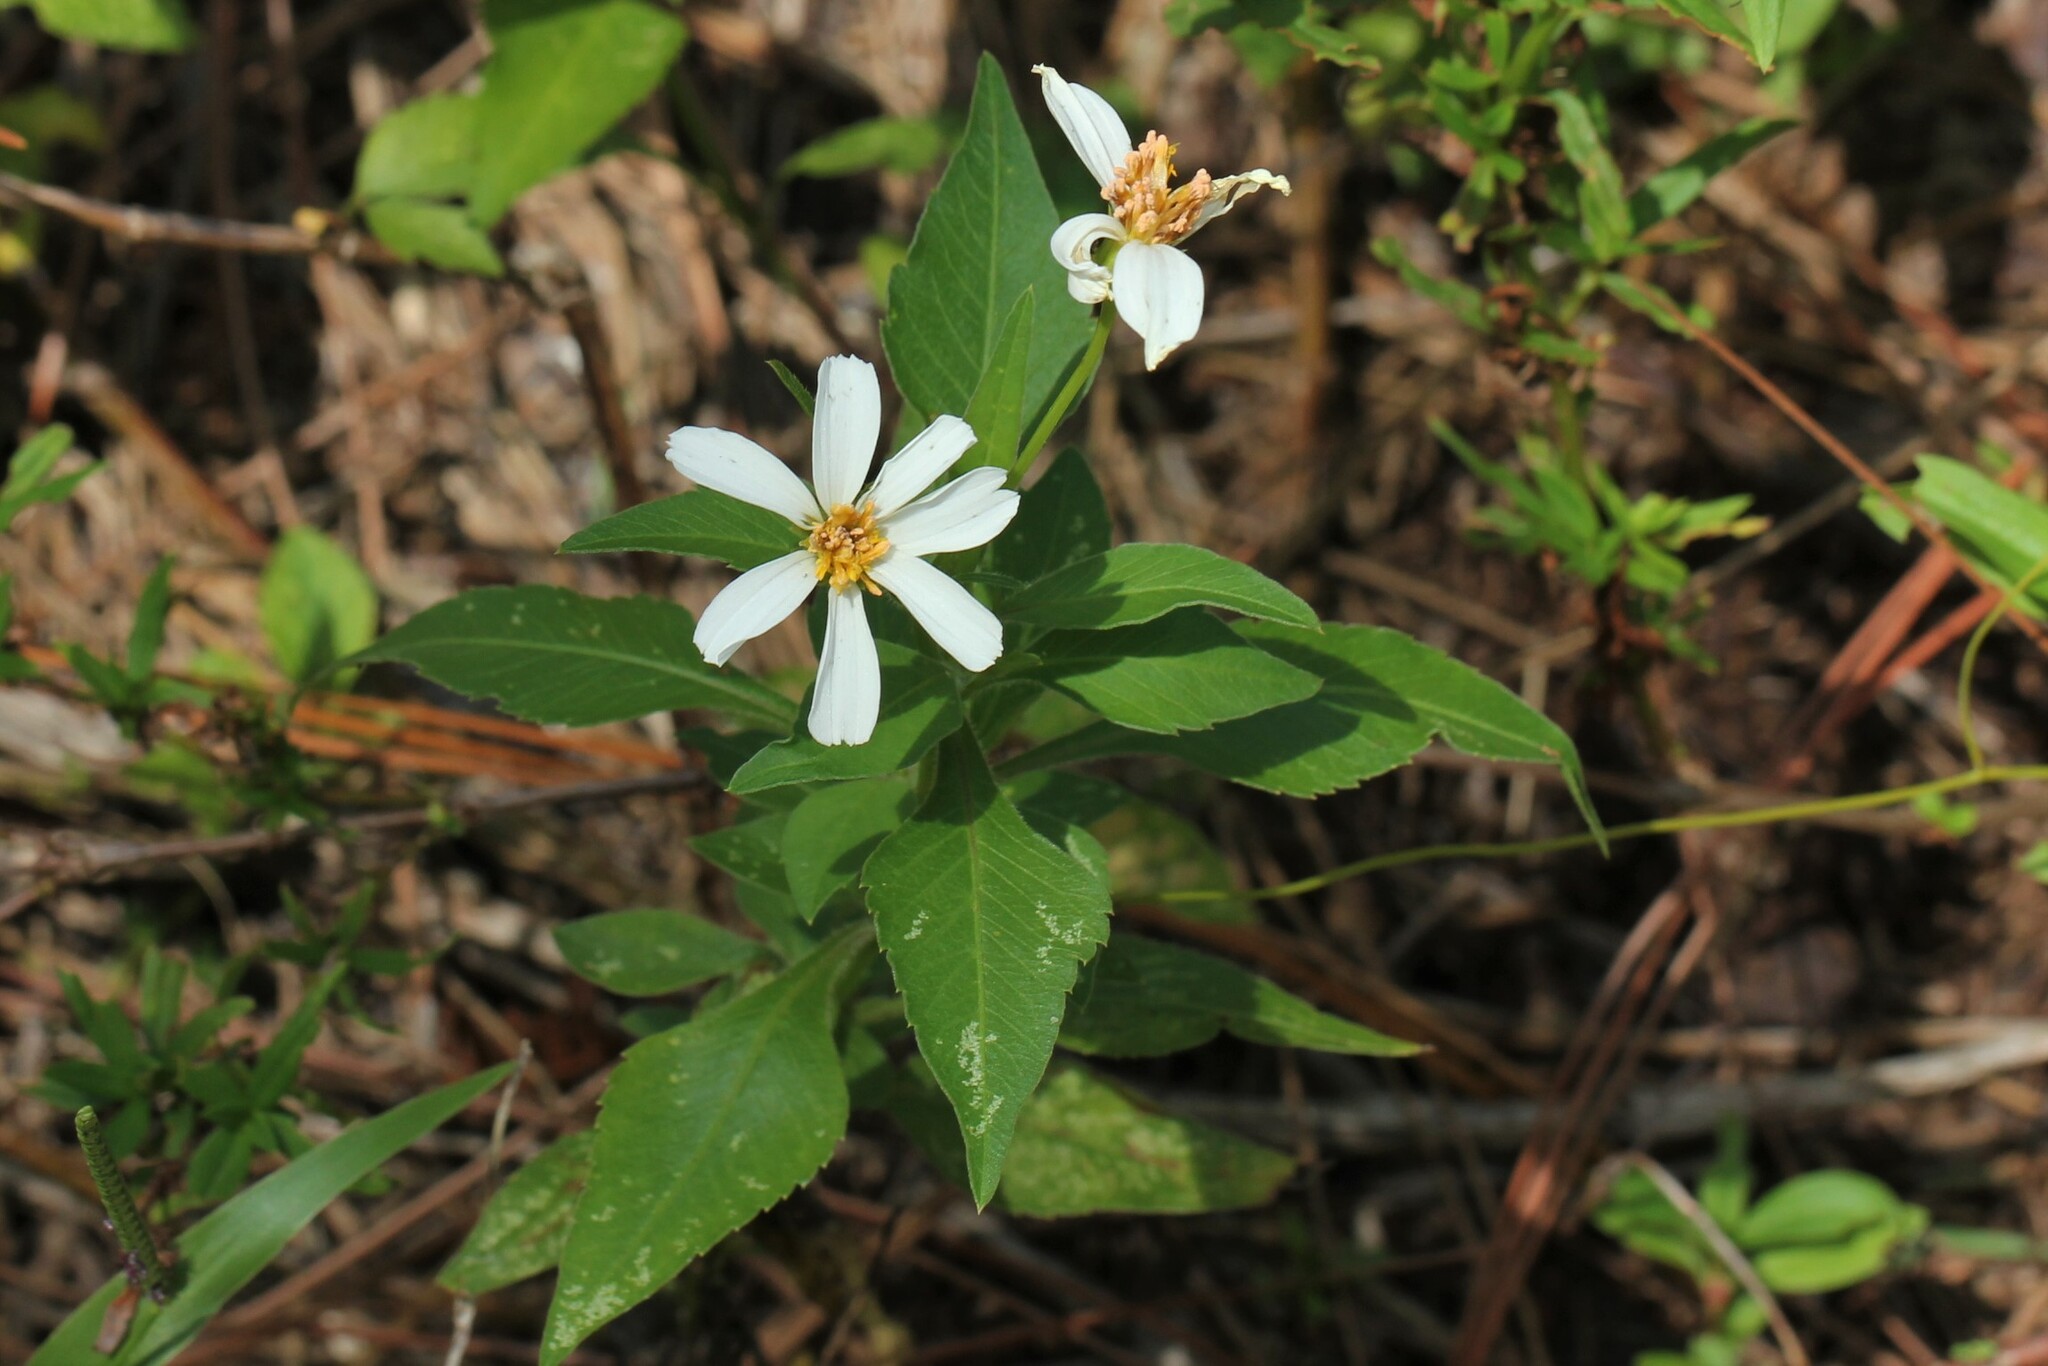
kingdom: Plantae
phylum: Tracheophyta
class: Magnoliopsida
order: Asterales
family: Asteraceae
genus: Bidens
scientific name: Bidens alba
